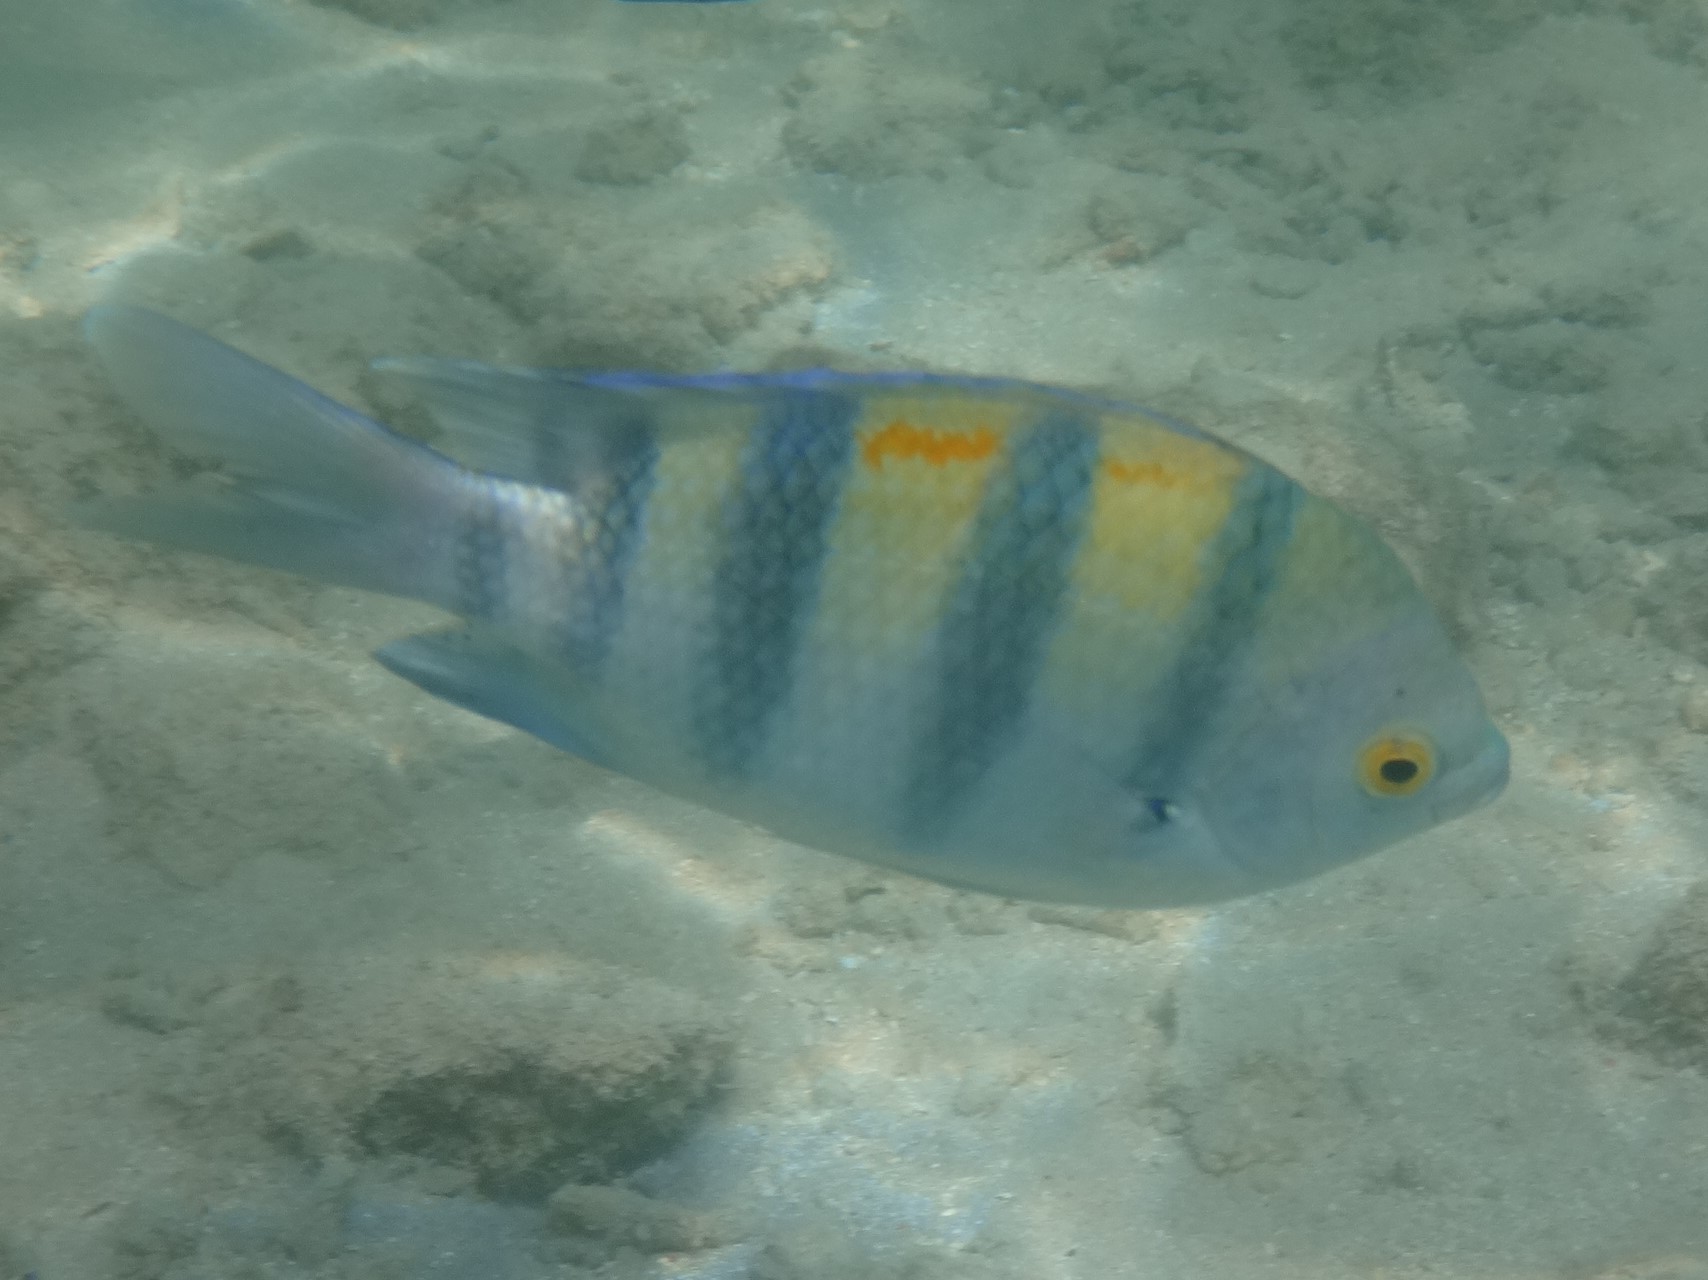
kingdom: Animalia
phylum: Chordata
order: Perciformes
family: Pomacentridae
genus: Abudefduf
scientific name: Abudefduf vaigiensis
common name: Indo-pacific sergeant
